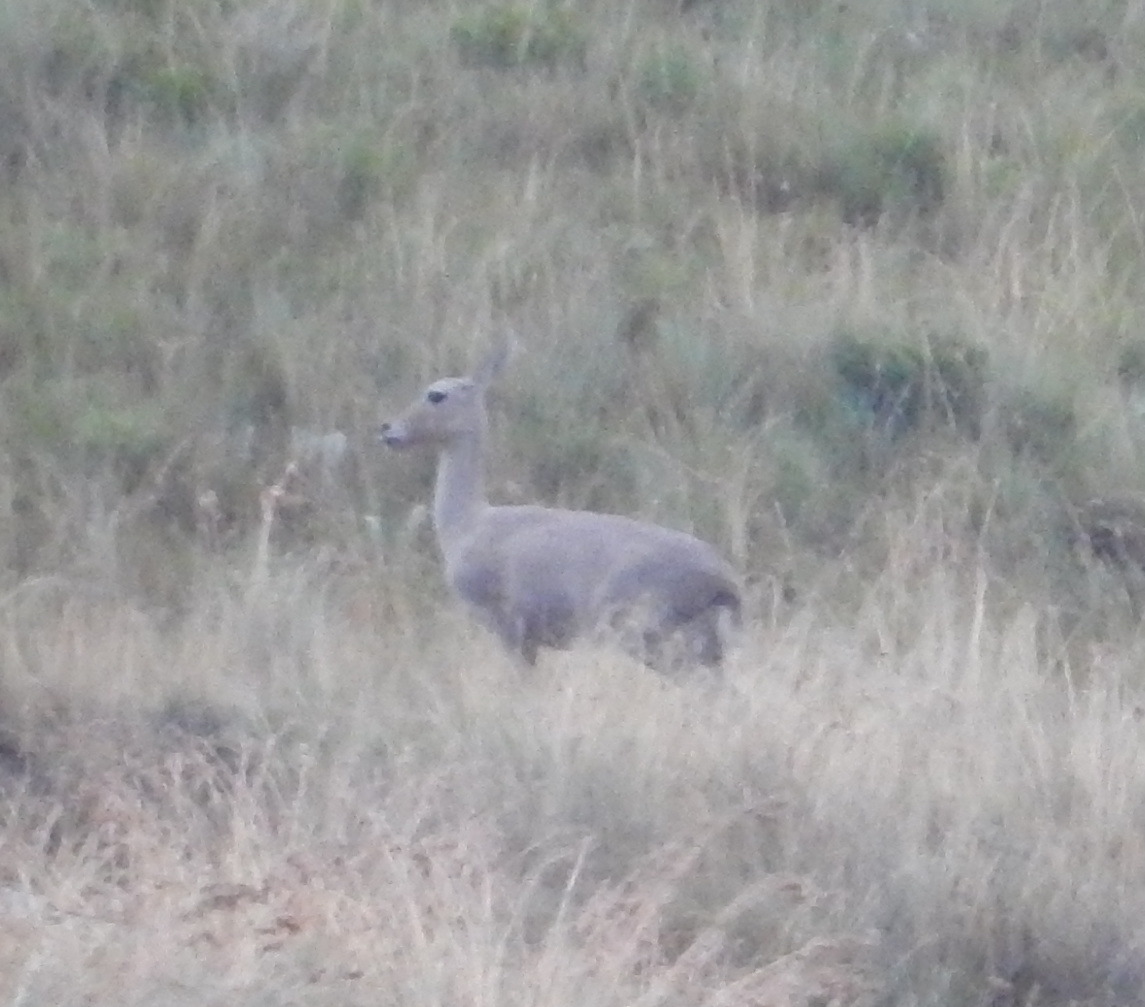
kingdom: Animalia
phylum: Chordata
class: Mammalia
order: Artiodactyla
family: Bovidae
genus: Pelea
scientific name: Pelea capreolus
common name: Common rhebok
